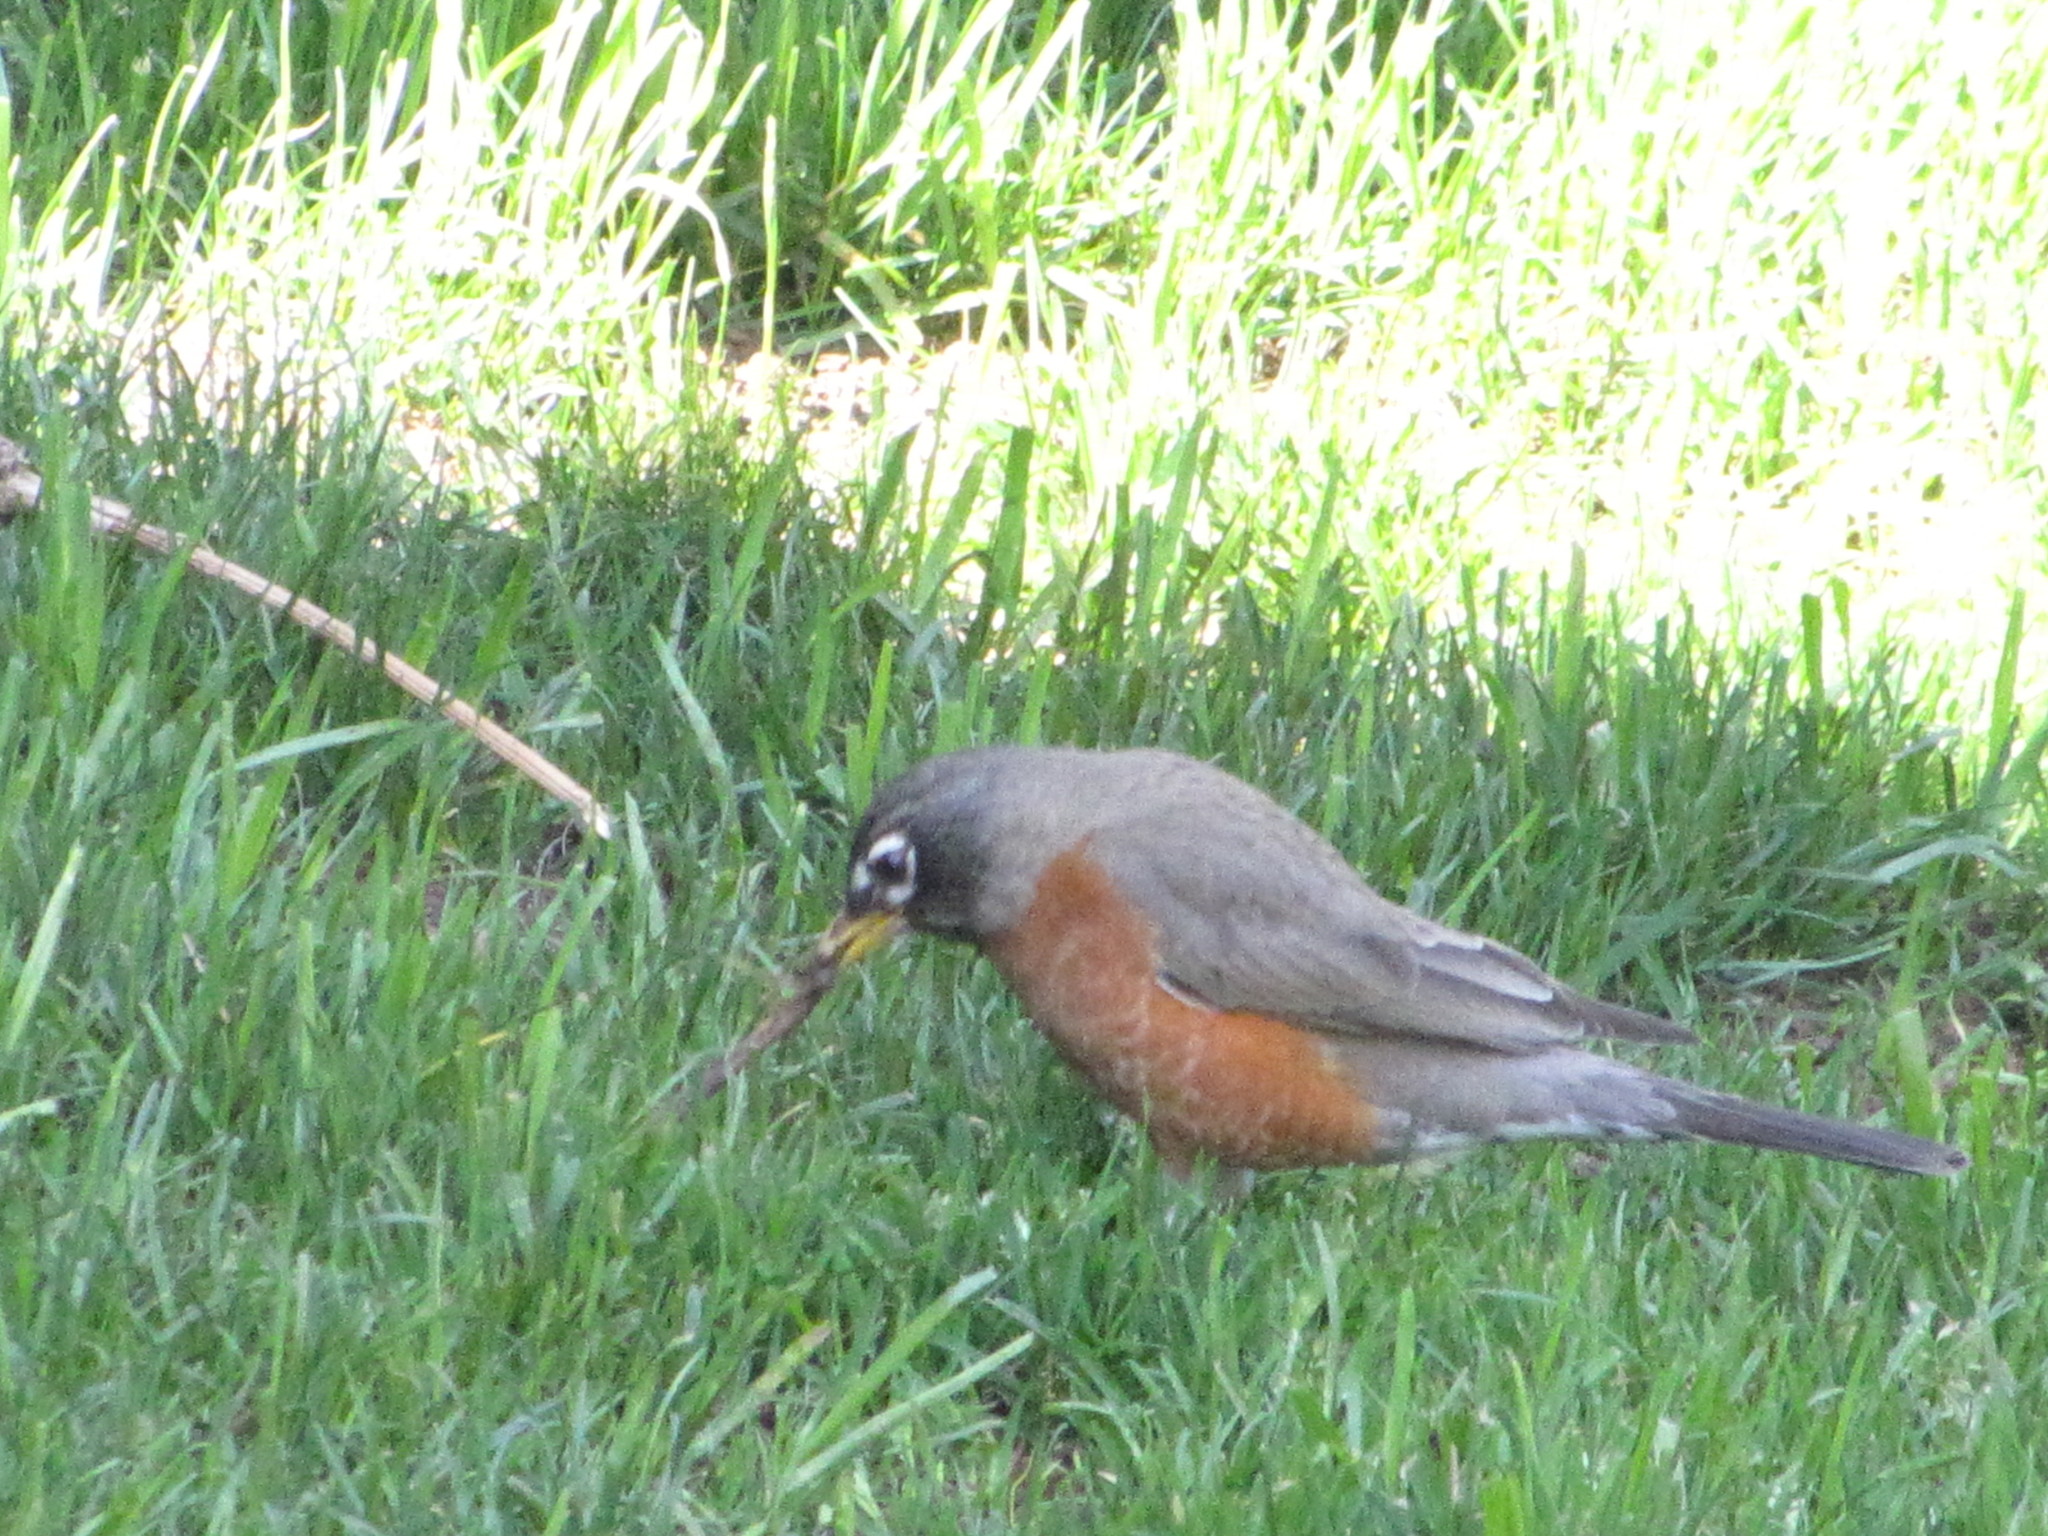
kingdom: Animalia
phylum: Chordata
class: Aves
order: Passeriformes
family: Turdidae
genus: Turdus
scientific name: Turdus migratorius
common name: American robin
